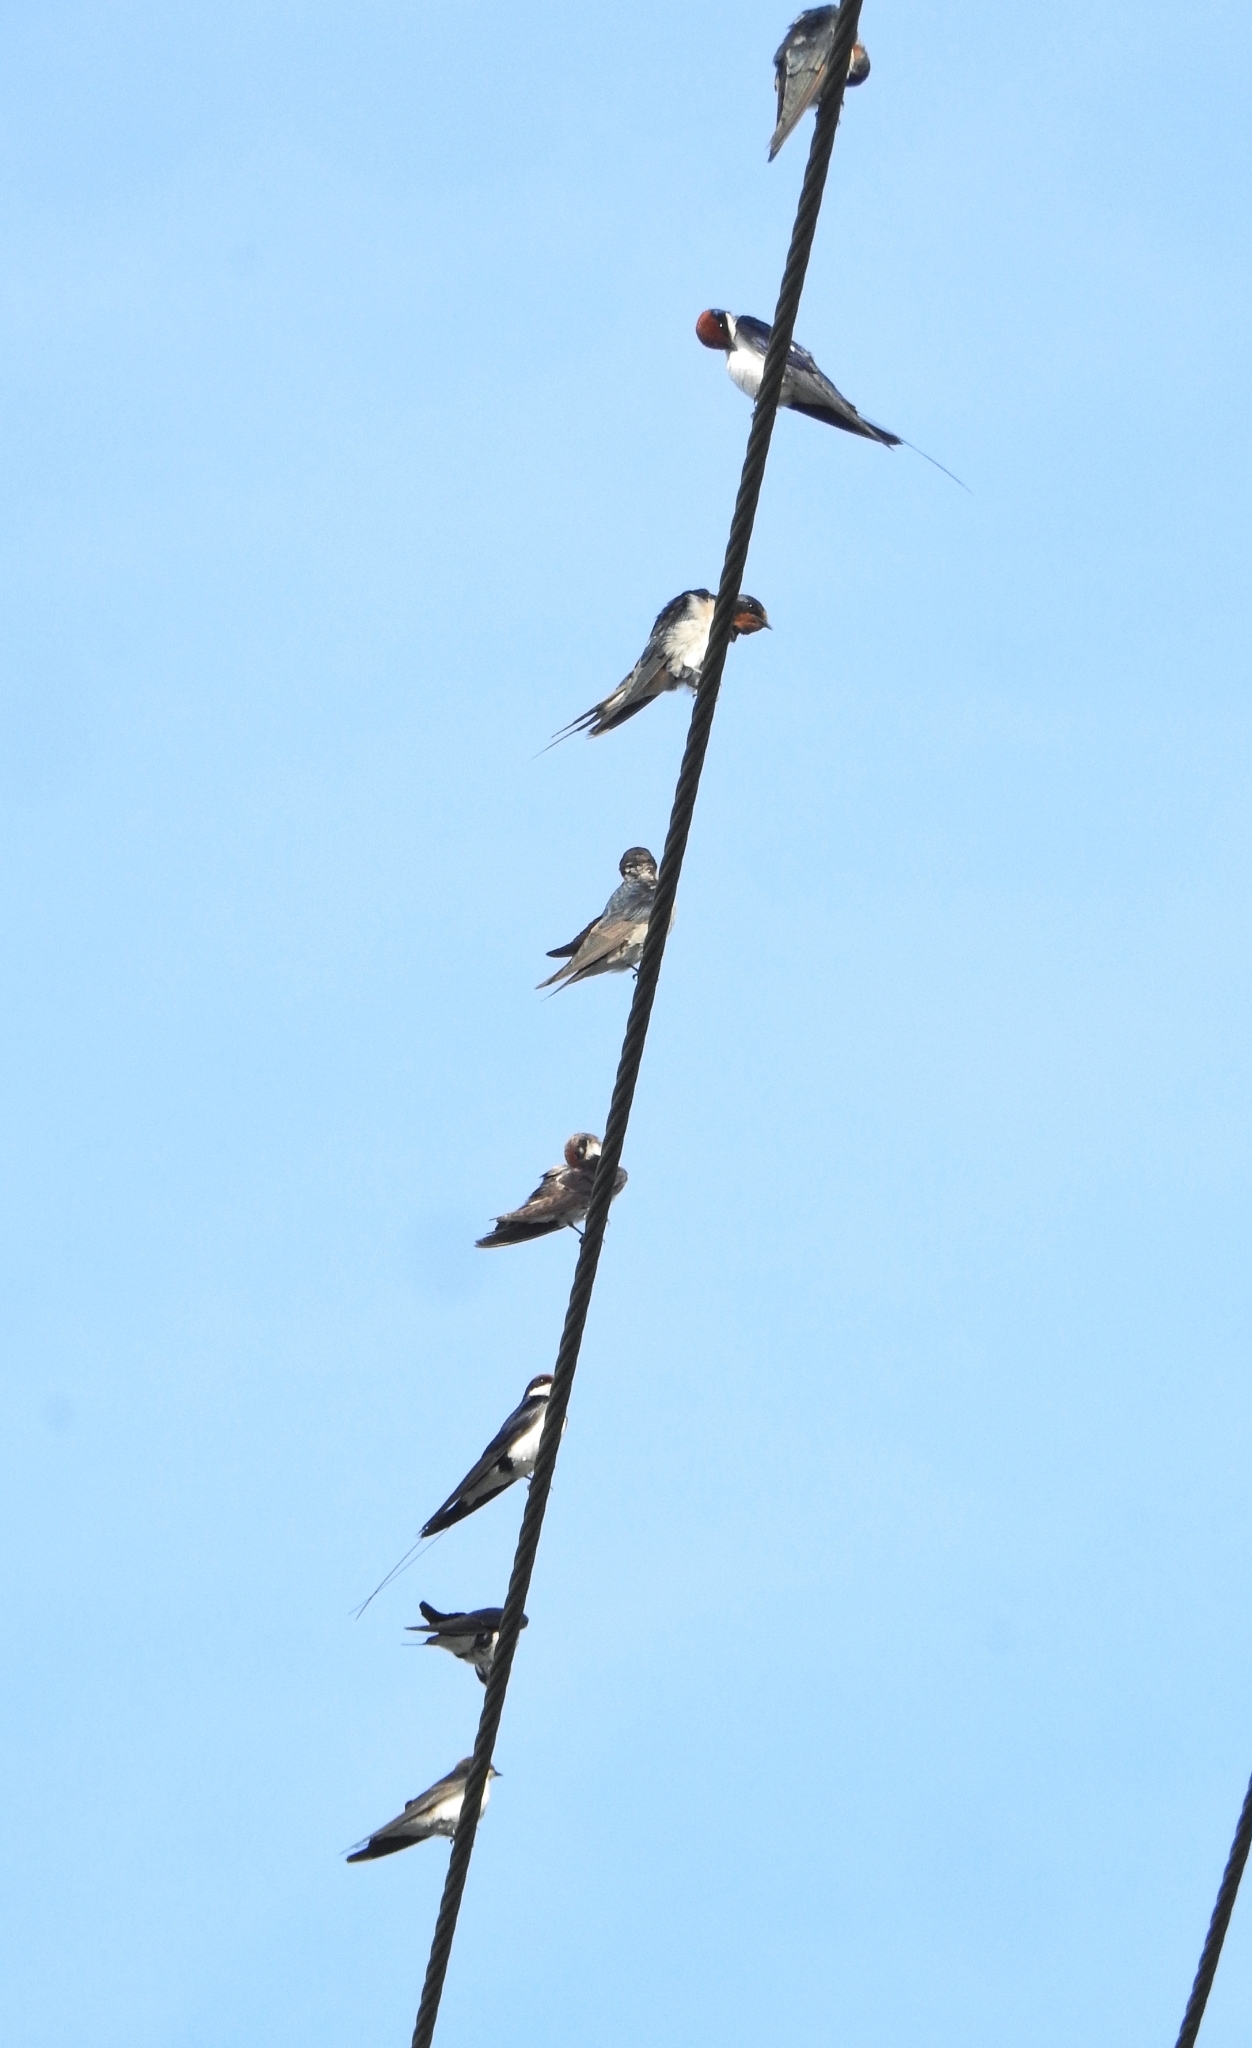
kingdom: Animalia
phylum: Chordata
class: Aves
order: Passeriformes
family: Hirundinidae
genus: Hirundo
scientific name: Hirundo smithii
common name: Wire-tailed swallow
